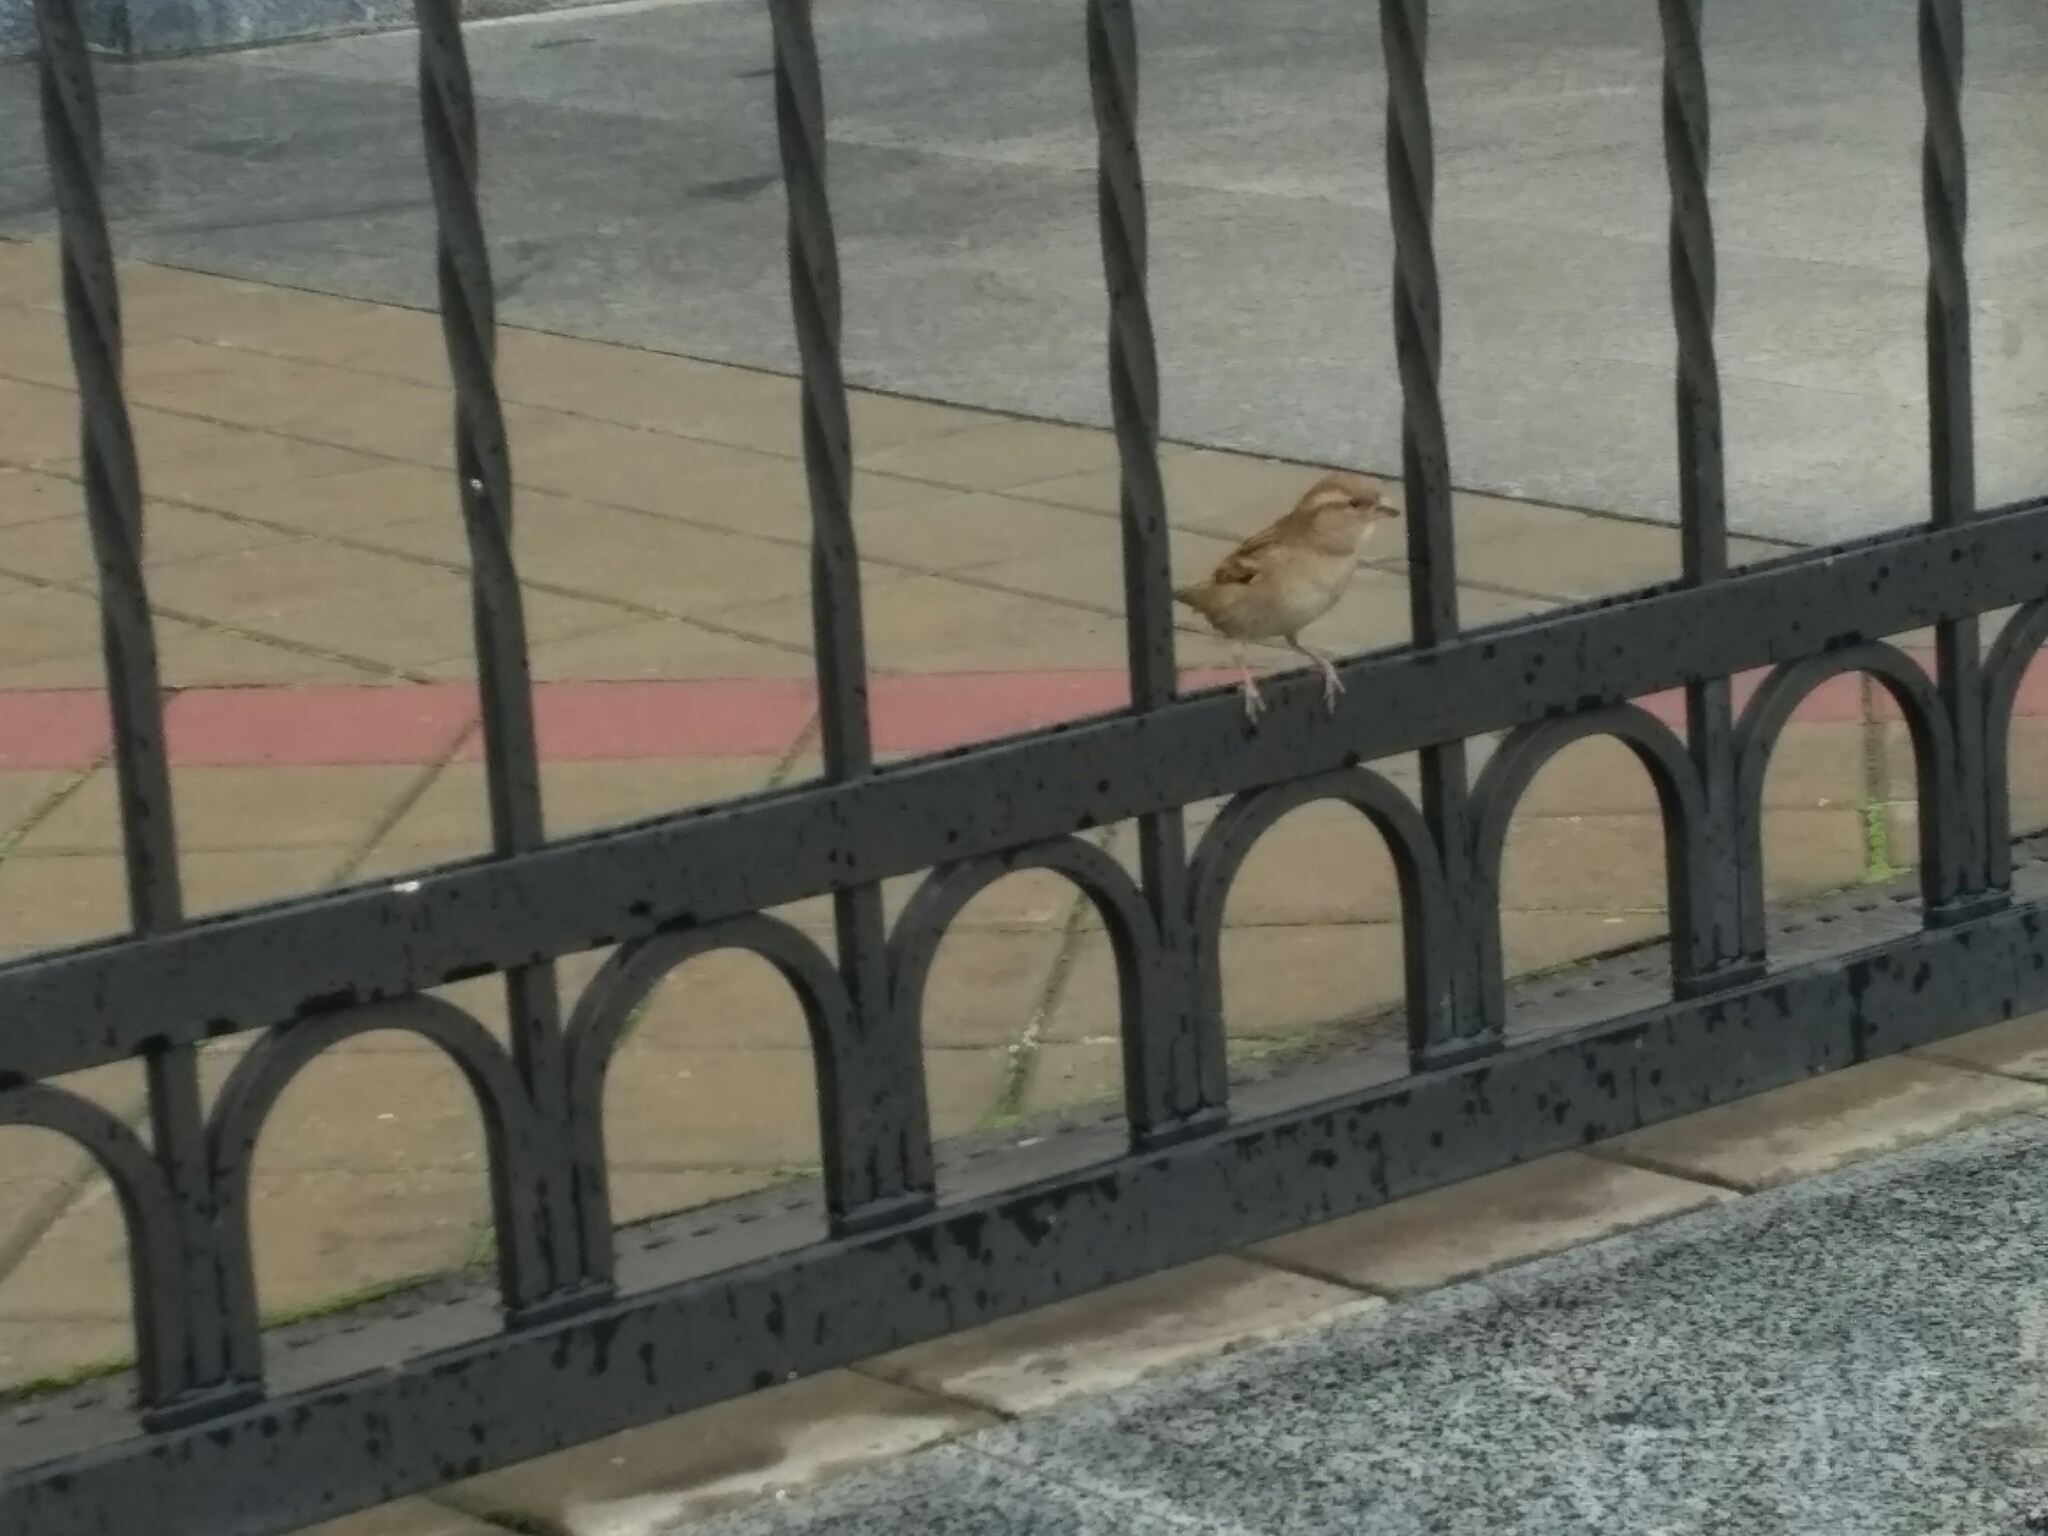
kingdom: Animalia
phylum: Chordata
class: Aves
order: Passeriformes
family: Passeridae
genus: Passer
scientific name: Passer domesticus
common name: House sparrow
